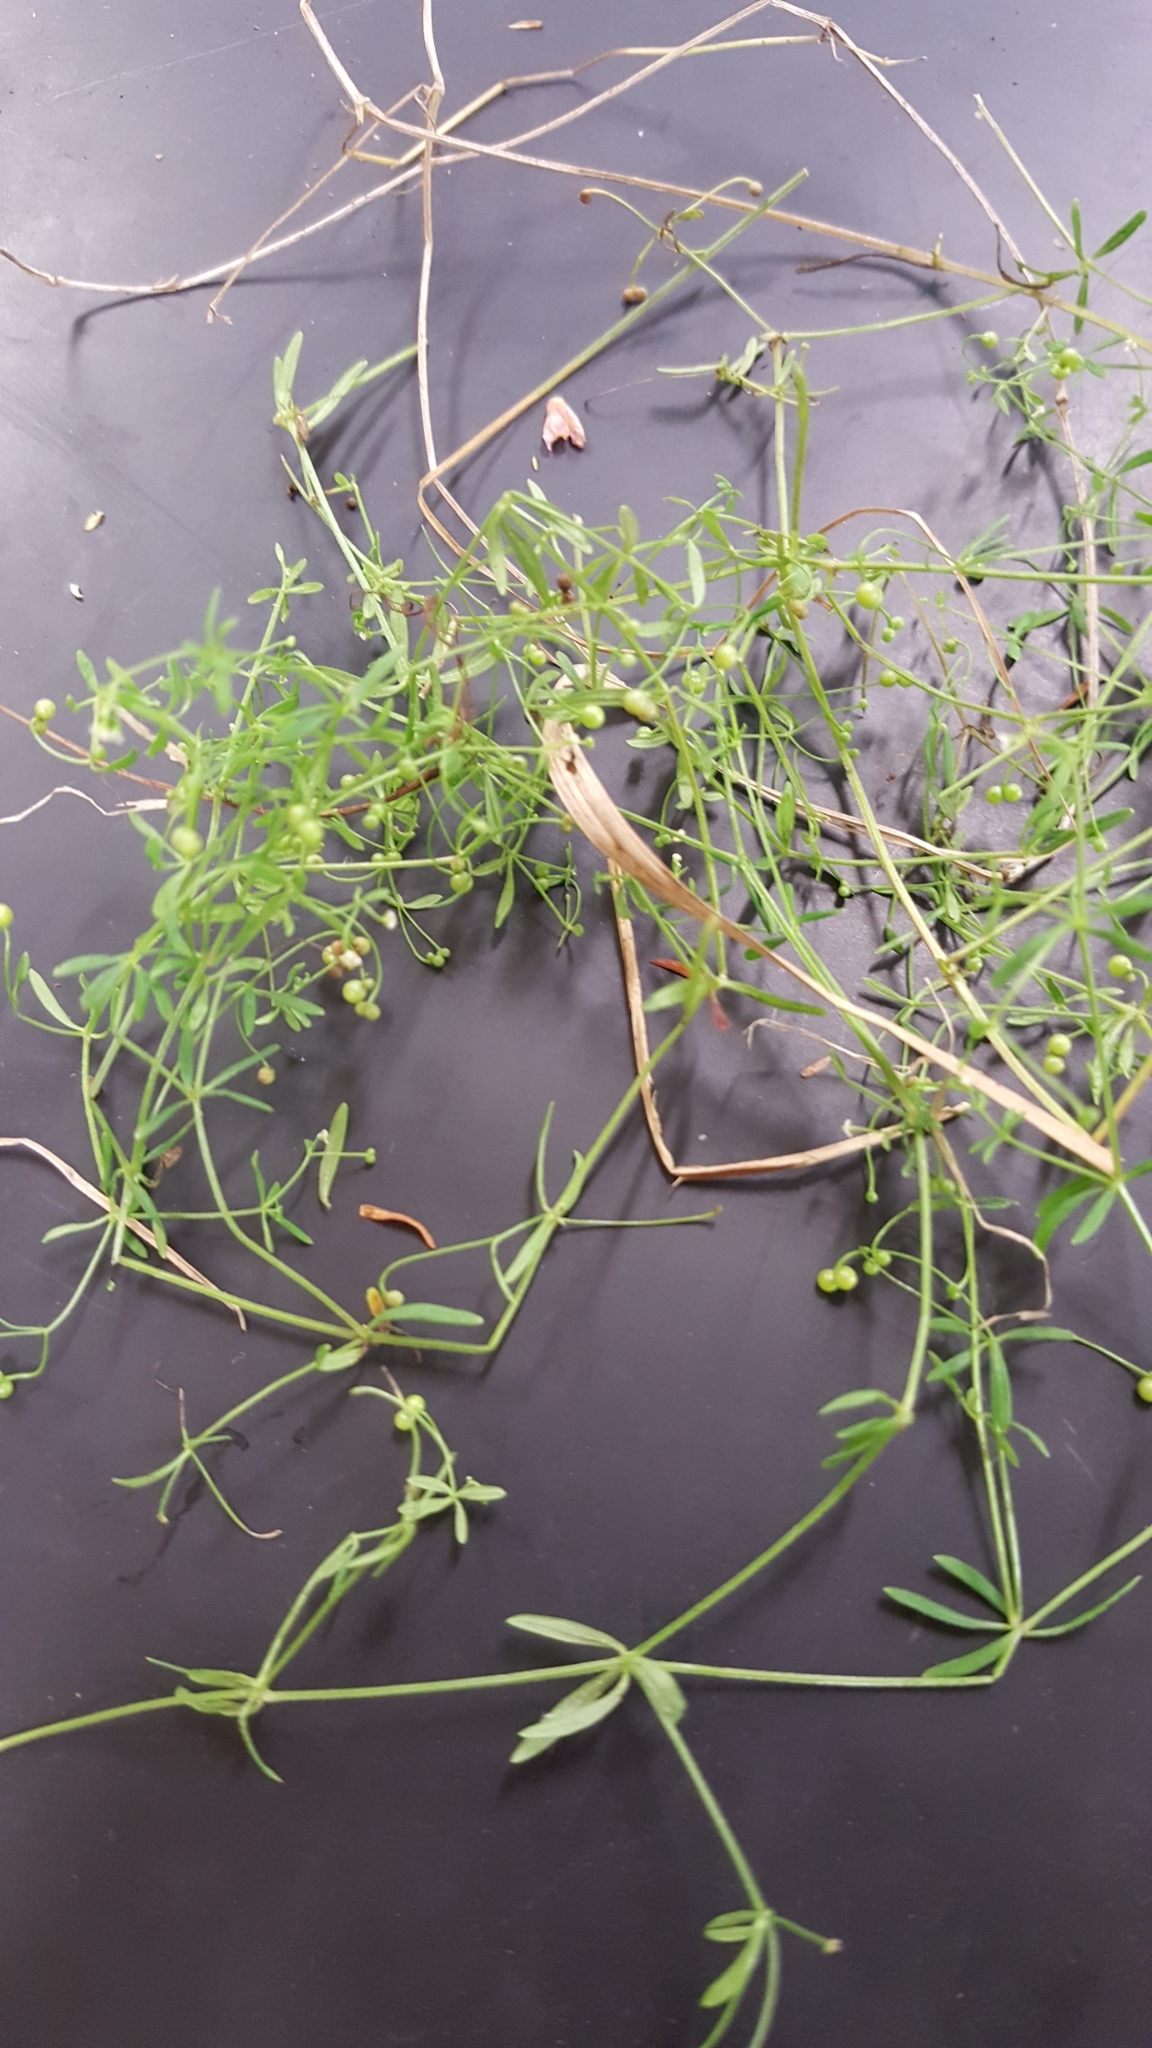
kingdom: Plantae
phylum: Tracheophyta
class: Magnoliopsida
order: Gentianales
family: Rubiaceae
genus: Galium
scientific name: Galium trifidum
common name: Small bedstraw
